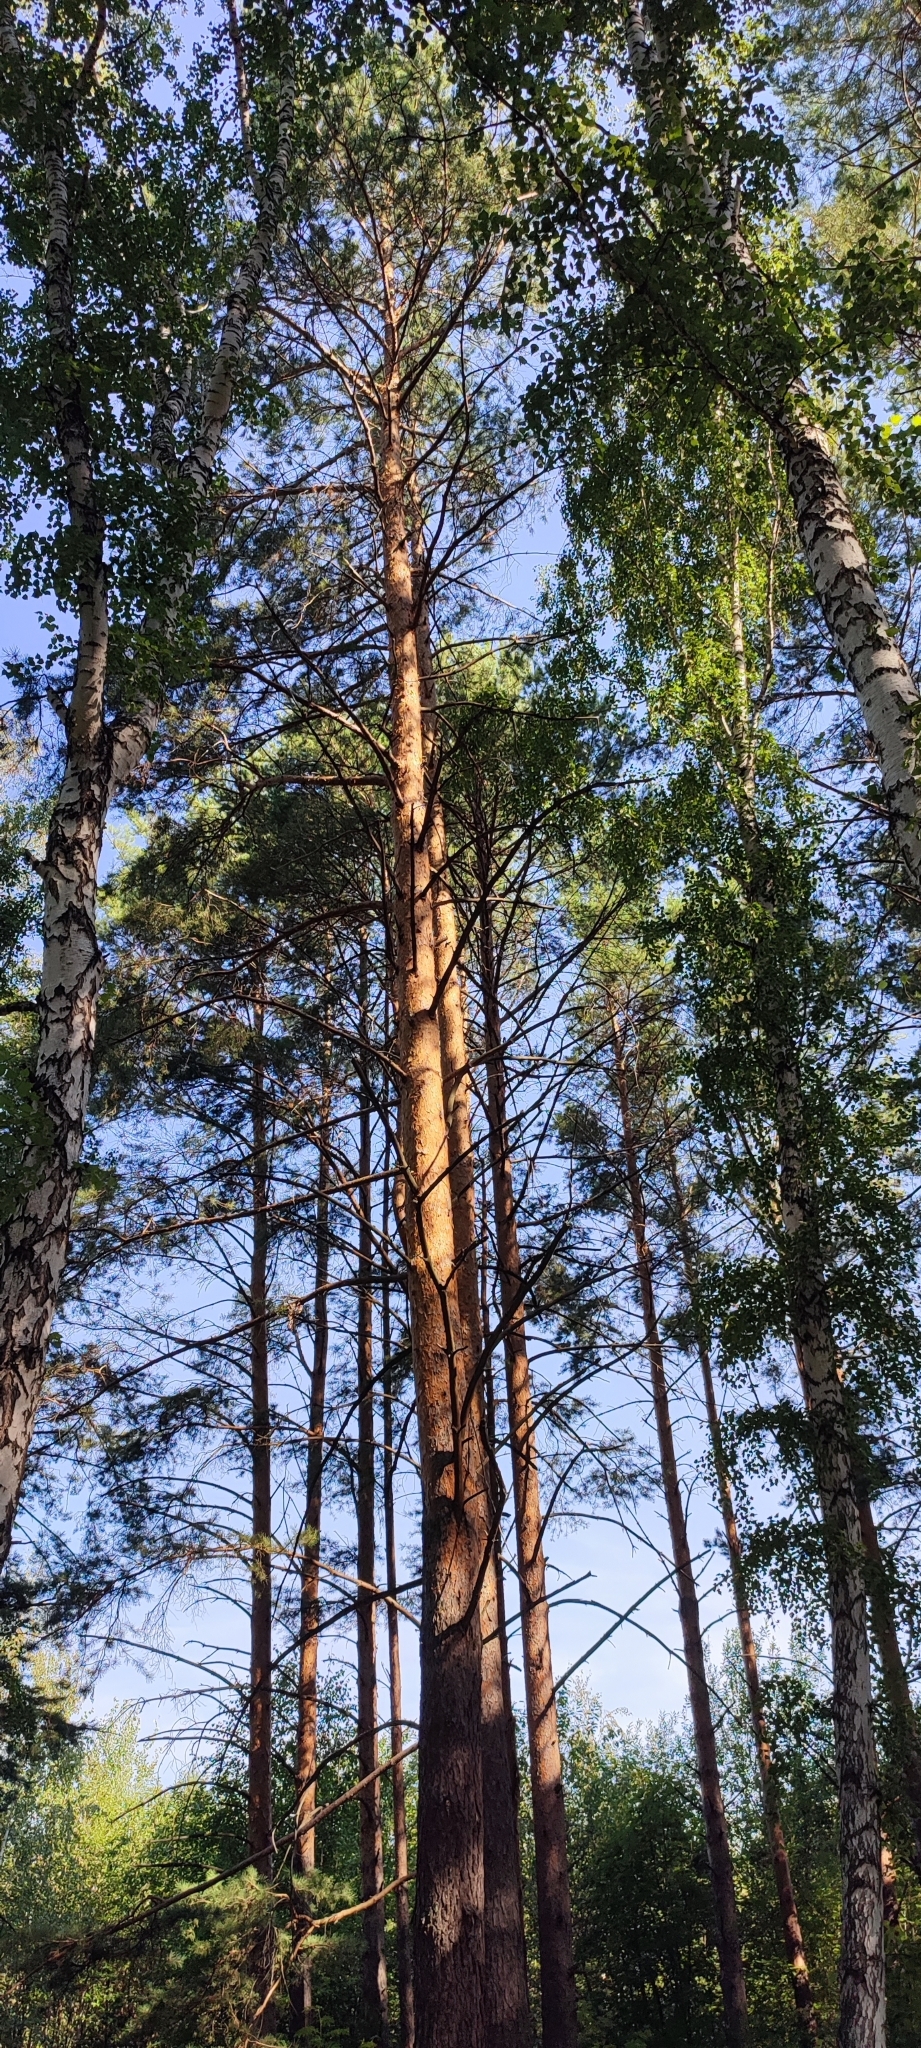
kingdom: Plantae
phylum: Tracheophyta
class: Pinopsida
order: Pinales
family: Pinaceae
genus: Pinus
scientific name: Pinus sylvestris
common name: Scots pine
